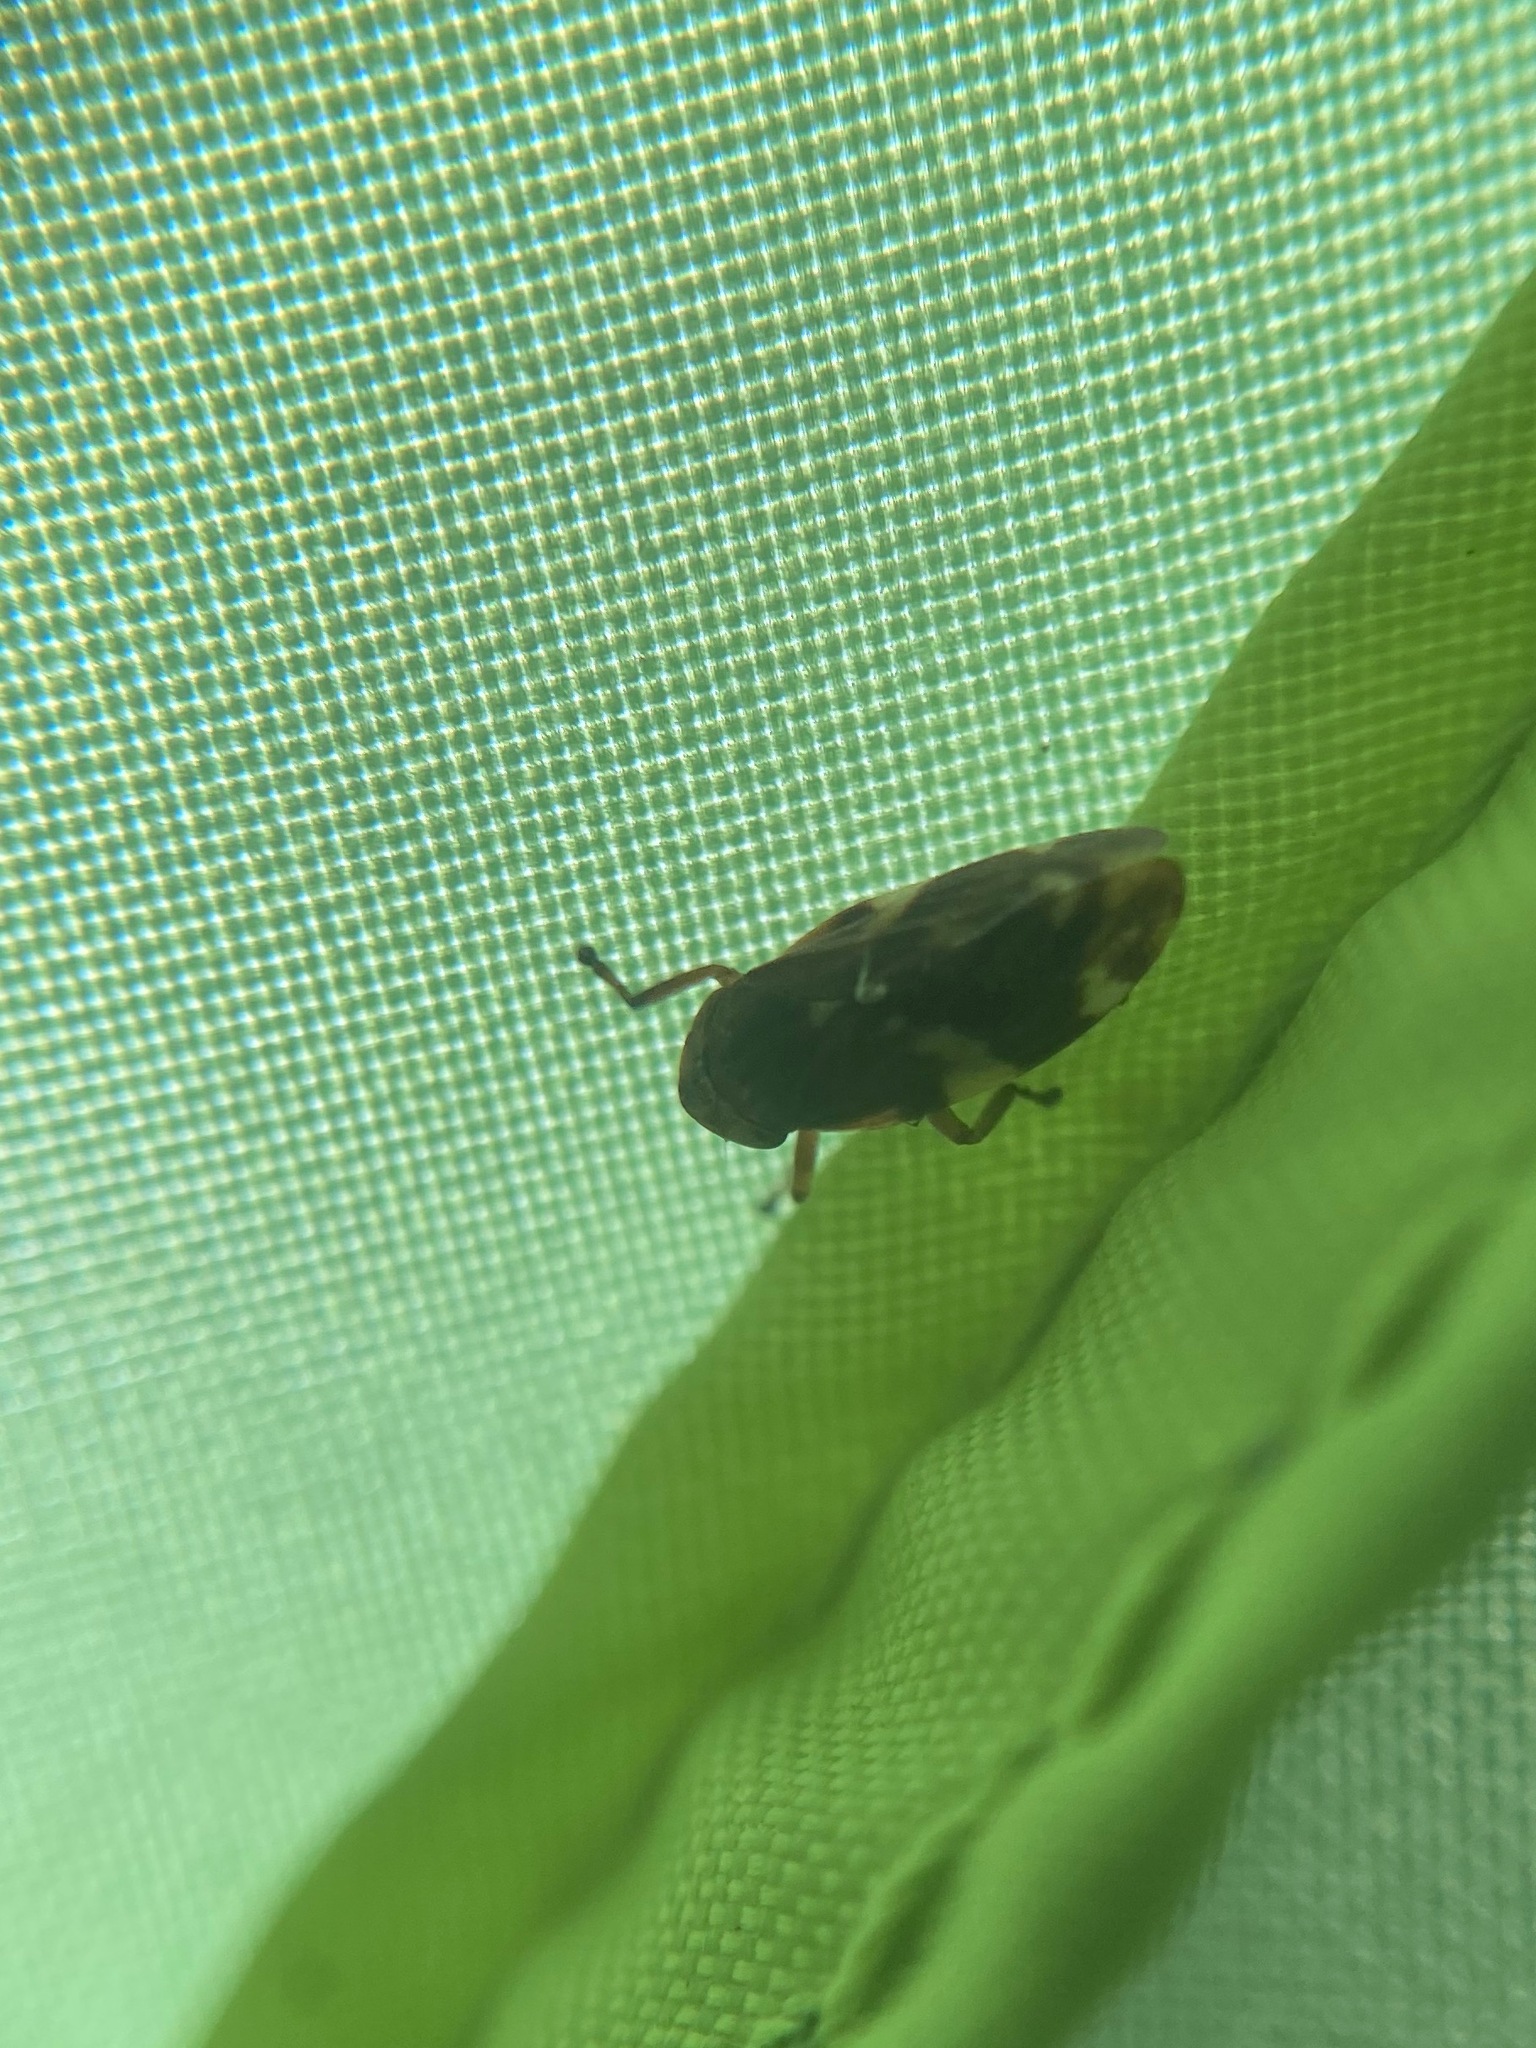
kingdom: Animalia
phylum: Arthropoda
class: Insecta
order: Hemiptera
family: Aphrophoridae
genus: Philaenus
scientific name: Philaenus spumarius
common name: Meadow spittlebug
